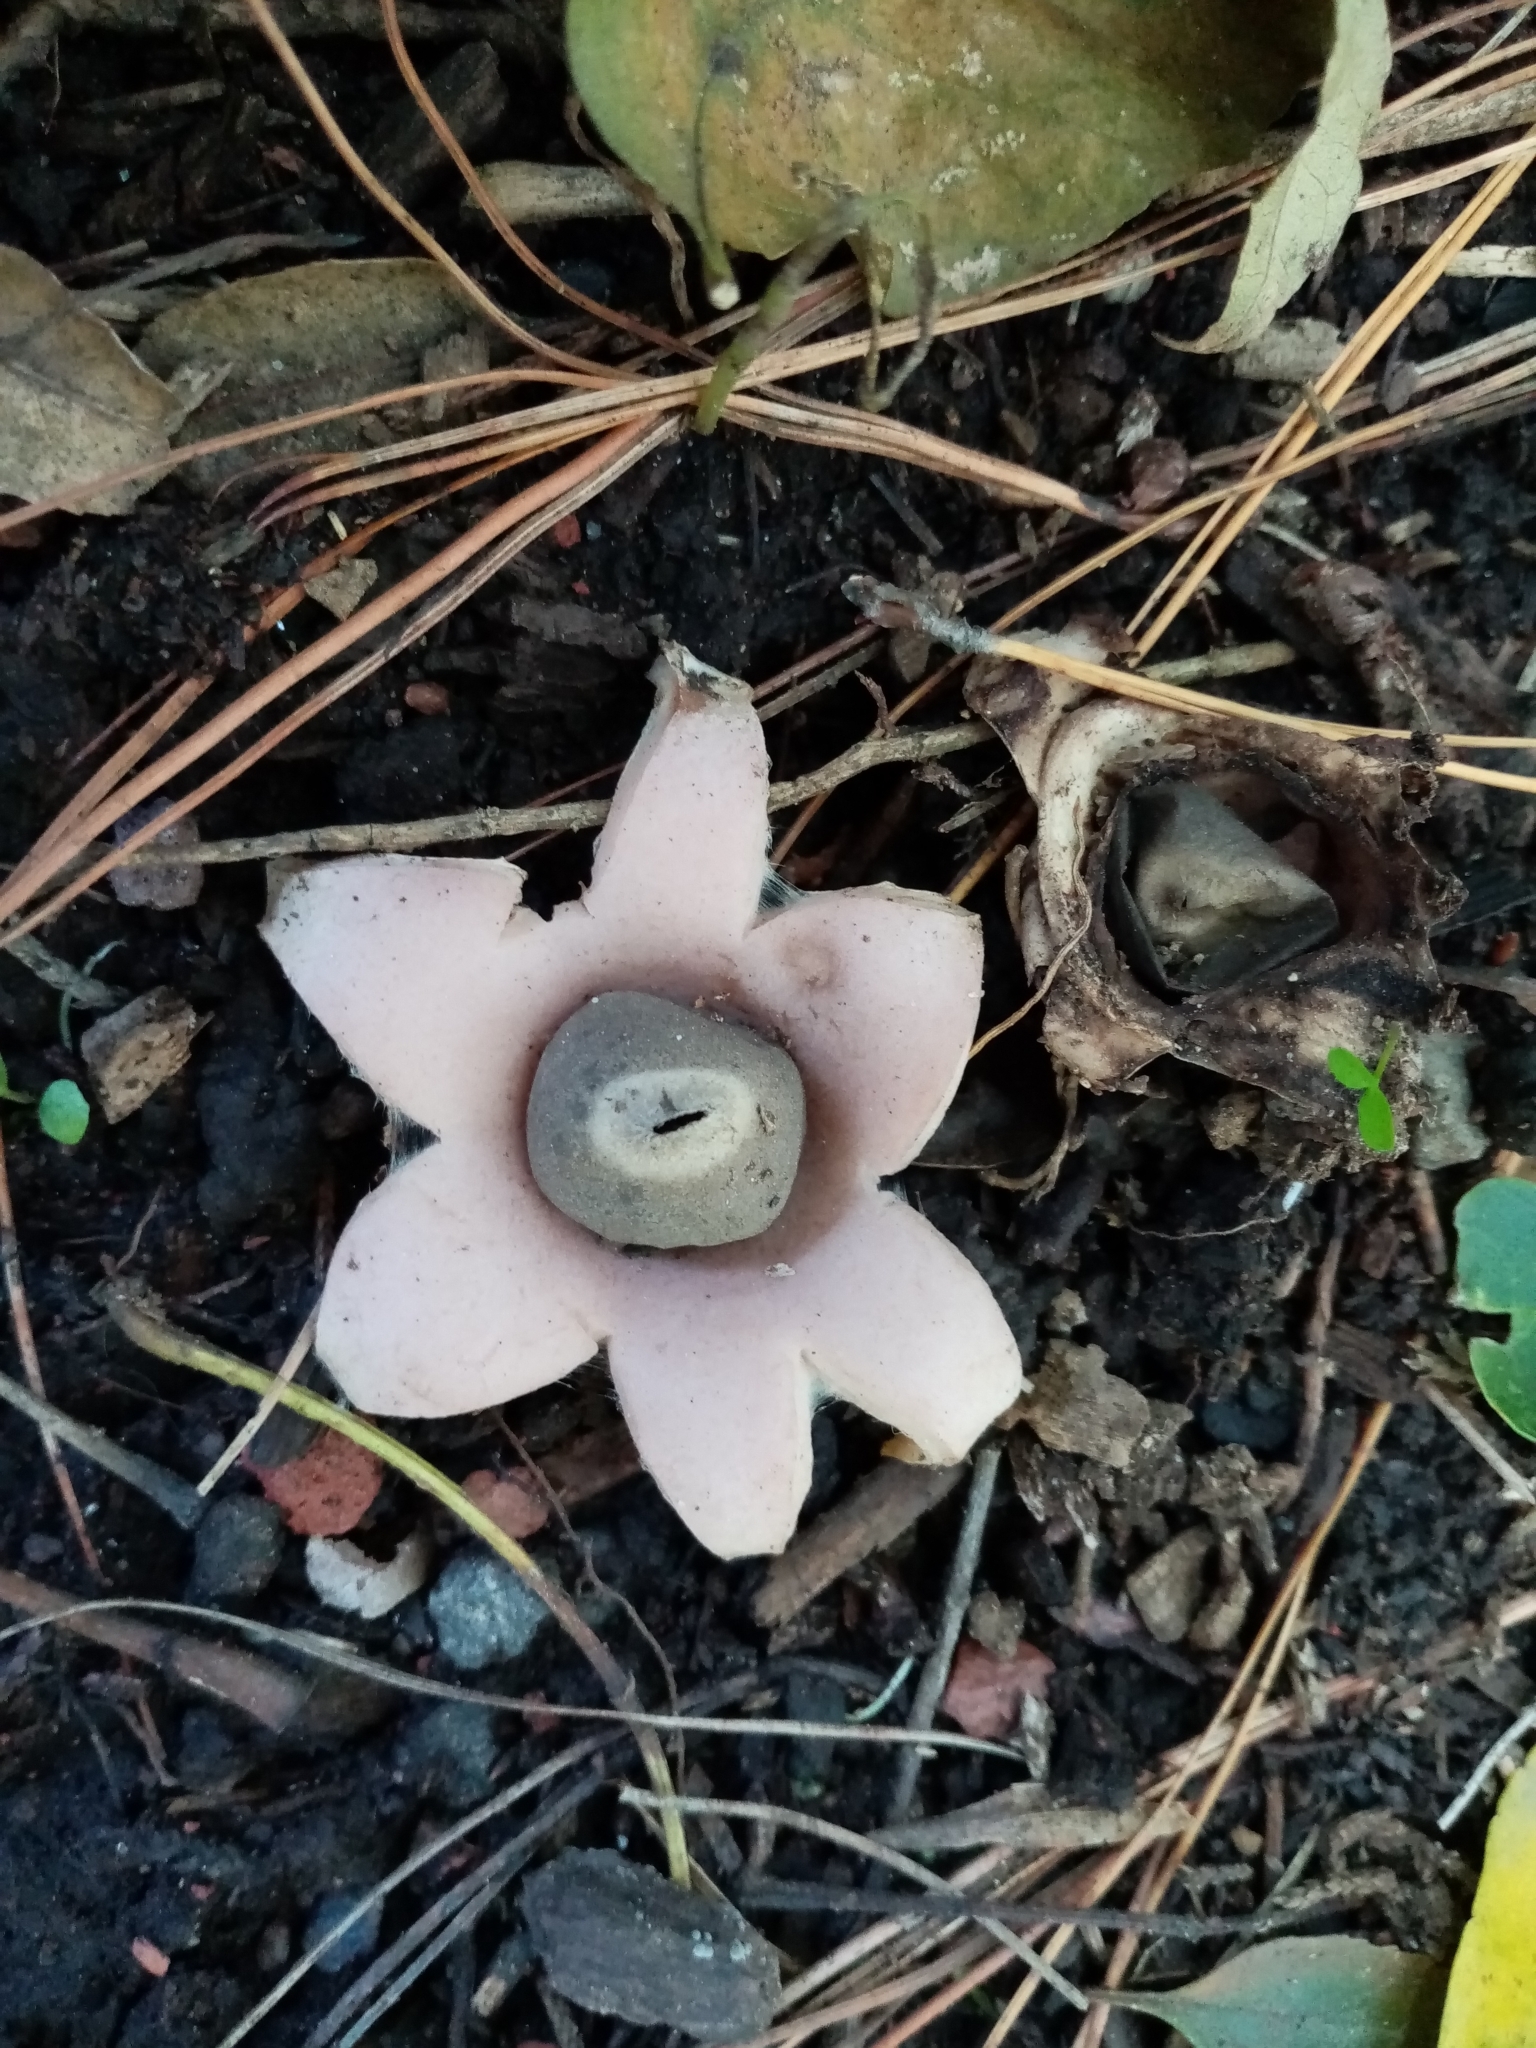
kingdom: Fungi
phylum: Basidiomycota
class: Agaricomycetes
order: Geastrales
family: Geastraceae
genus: Geastrum
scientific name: Geastrum saccatum
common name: Rounded earthstar
